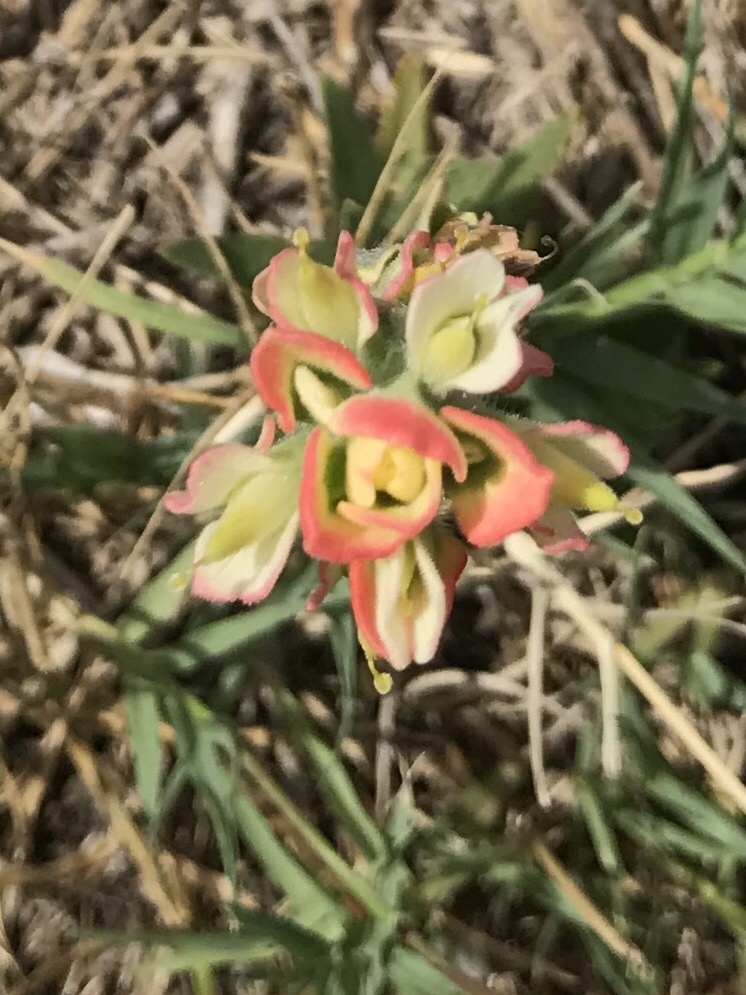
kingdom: Plantae
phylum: Tracheophyta
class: Magnoliopsida
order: Lamiales
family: Orobanchaceae
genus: Castilleja
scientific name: Castilleja indivisa
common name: Texas paintbrush
